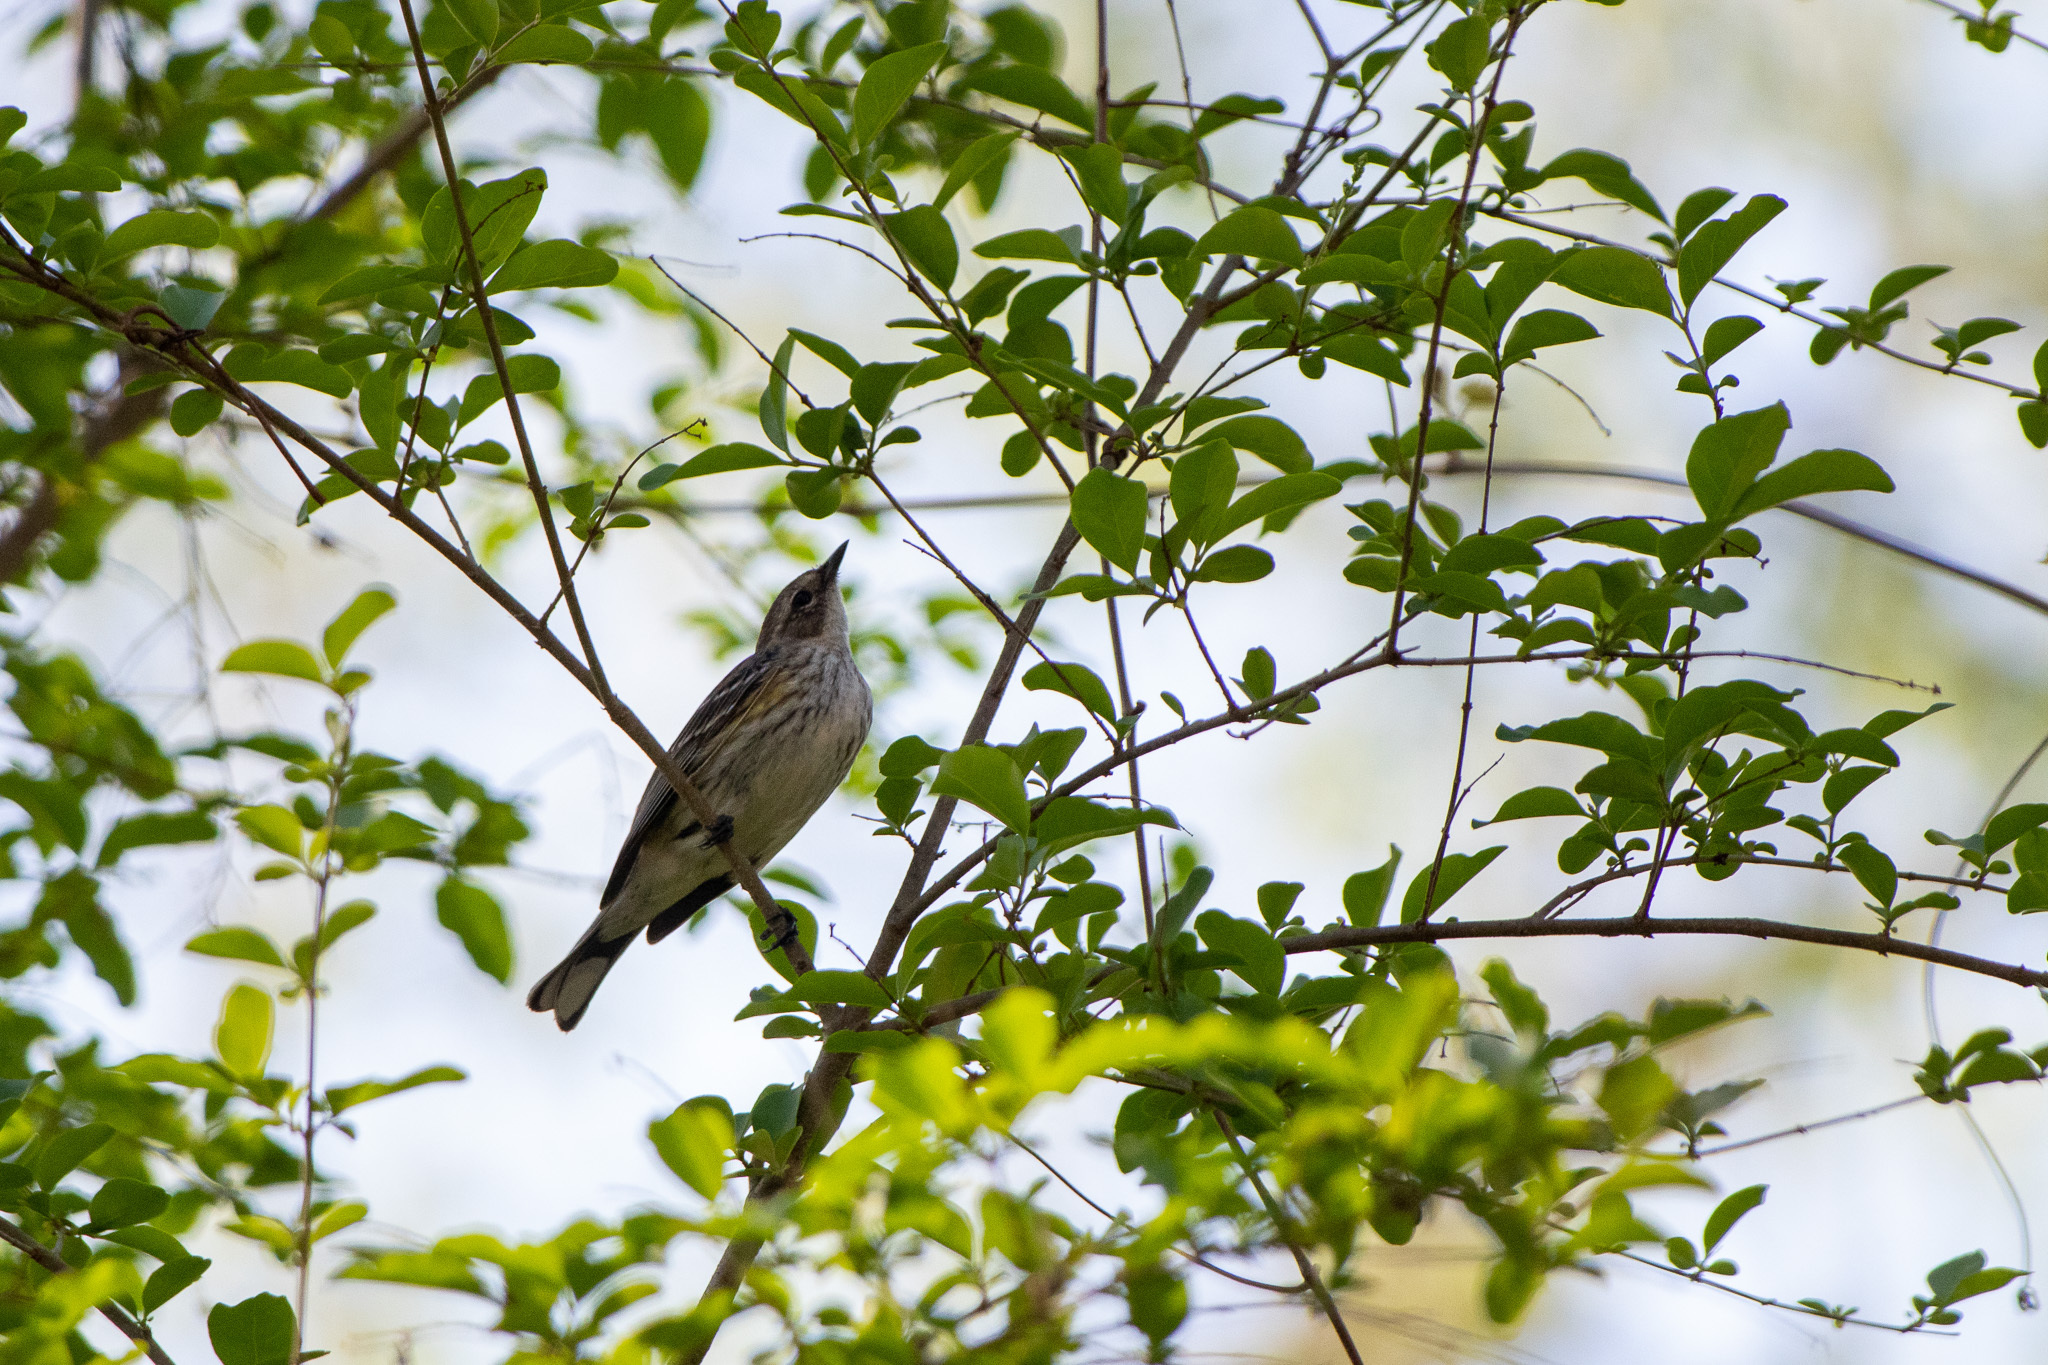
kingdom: Animalia
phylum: Chordata
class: Aves
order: Passeriformes
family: Parulidae
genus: Setophaga
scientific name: Setophaga coronata
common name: Myrtle warbler
